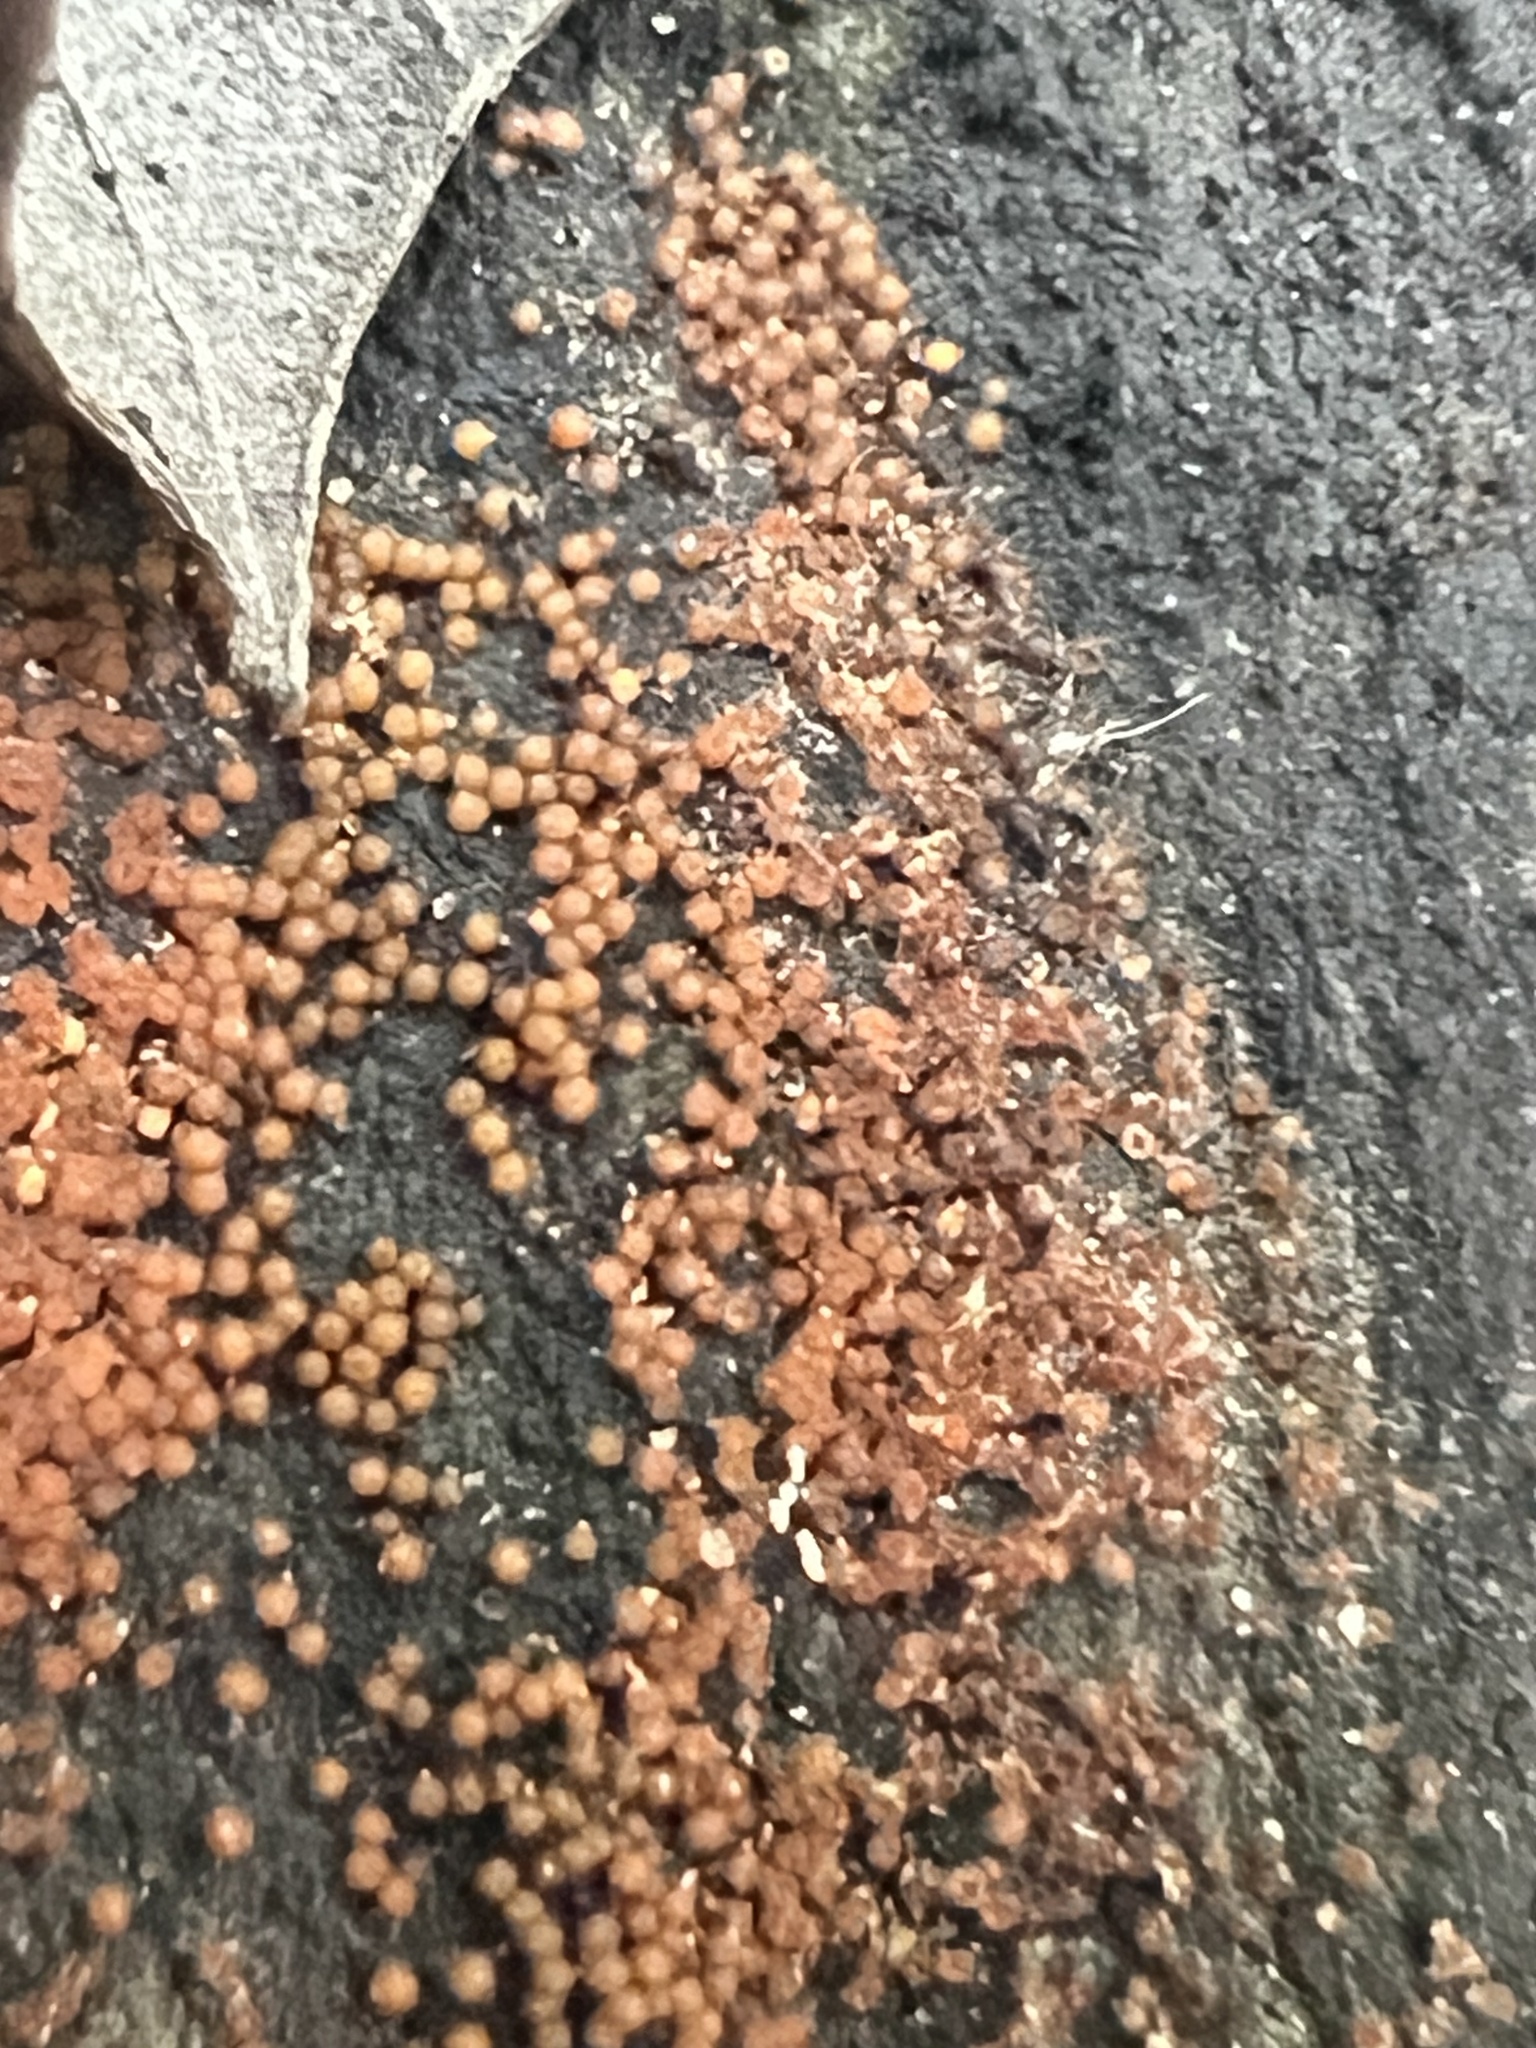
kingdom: Fungi
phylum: Ascomycota
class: Sordariomycetes
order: Hypocreales
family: Nectriaceae
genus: Hydropisphaera
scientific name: Hydropisphaera peziza
